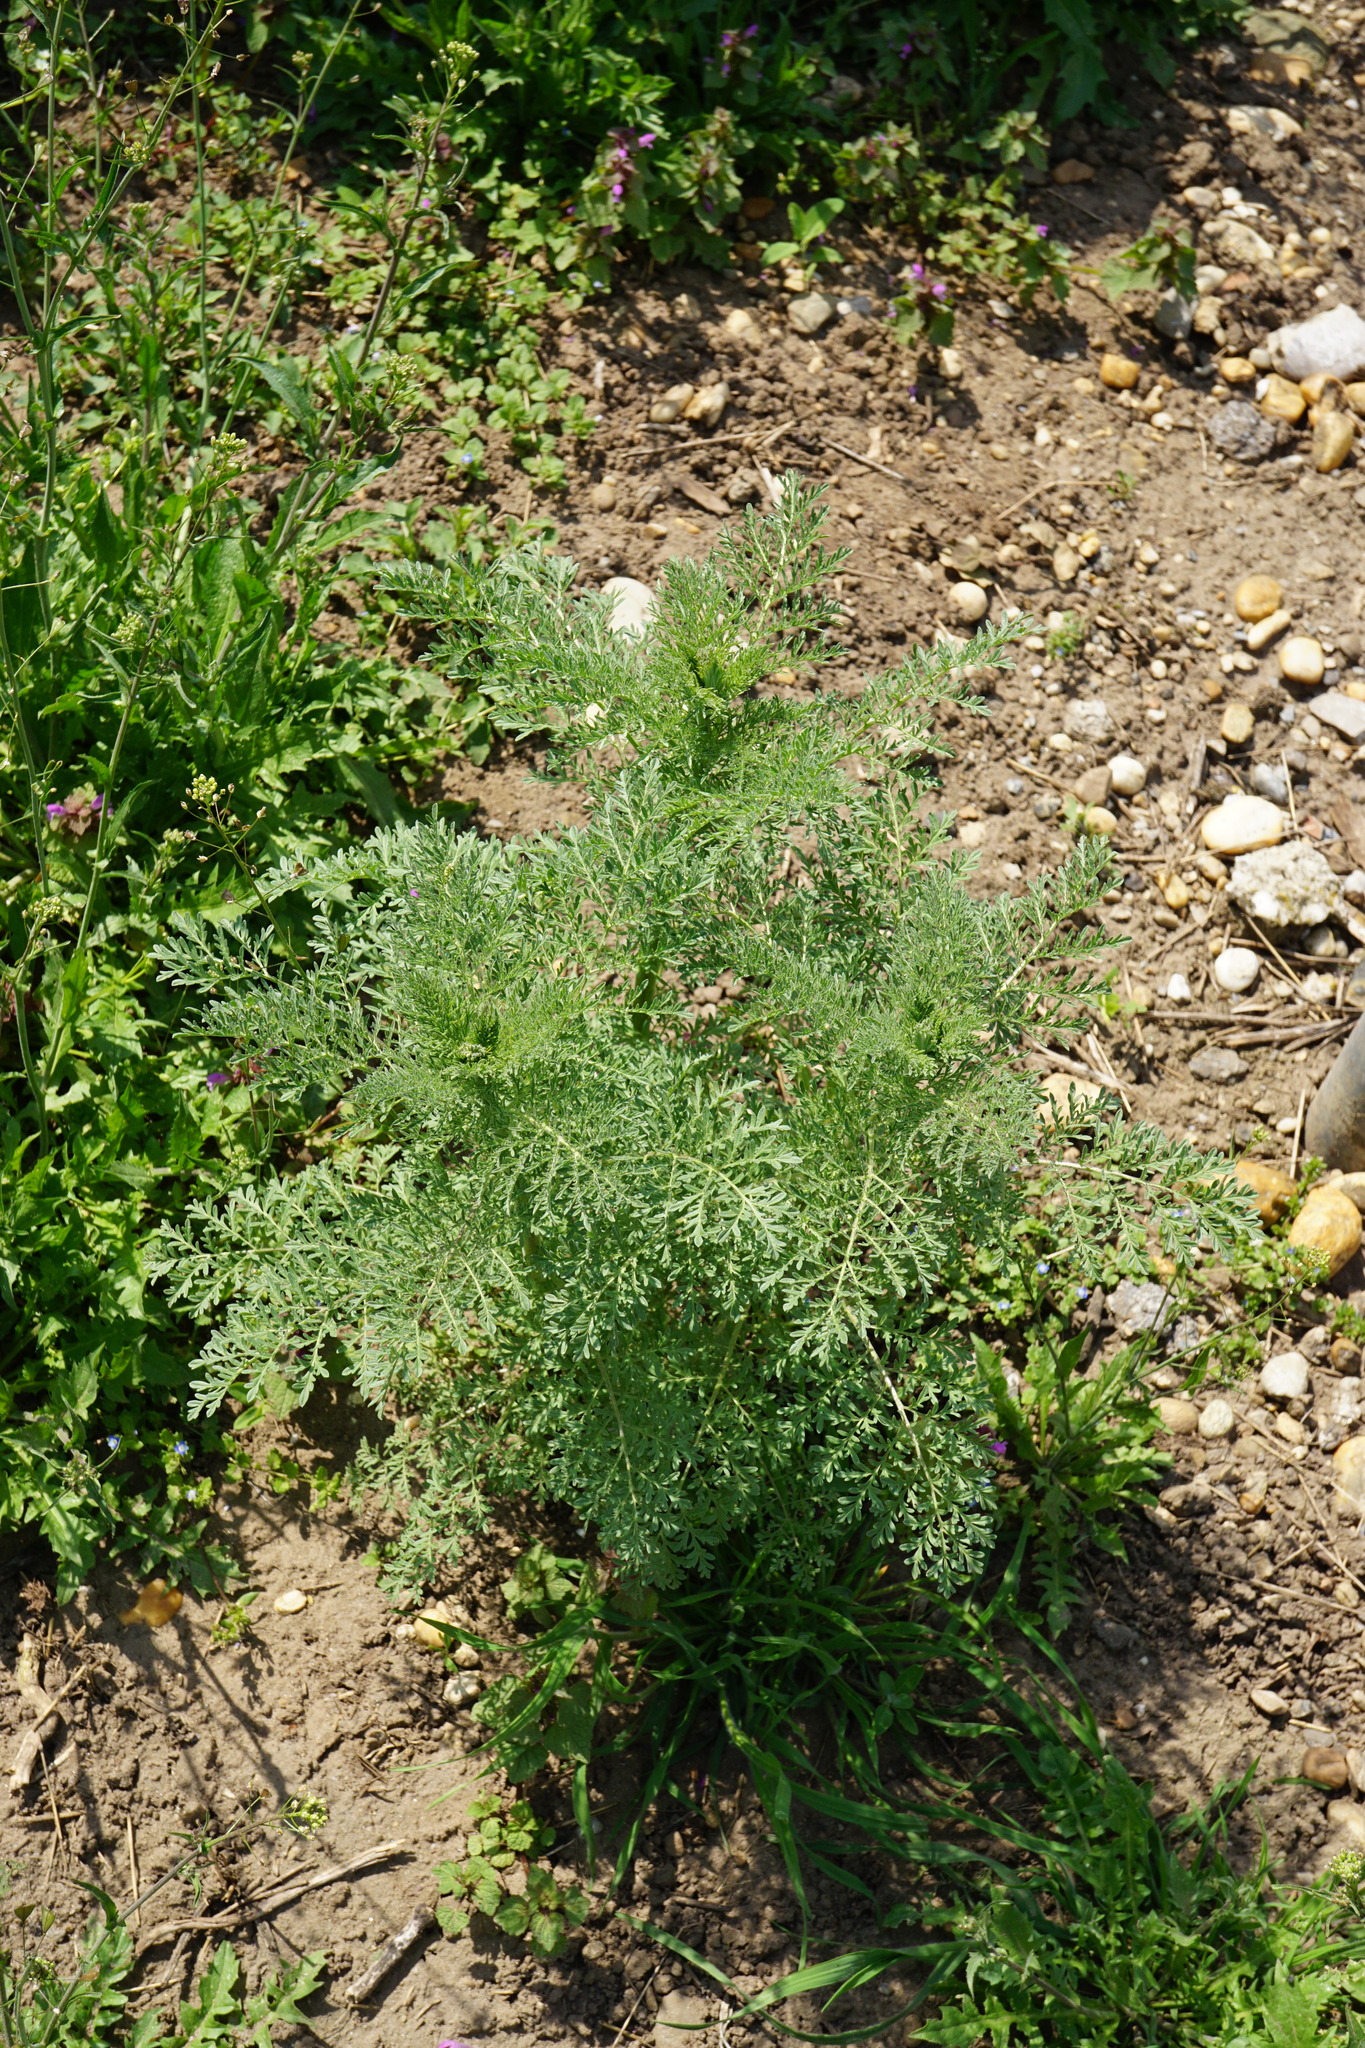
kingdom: Plantae
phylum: Tracheophyta
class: Magnoliopsida
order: Brassicales
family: Brassicaceae
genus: Descurainia
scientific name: Descurainia sophia
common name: Flixweed
